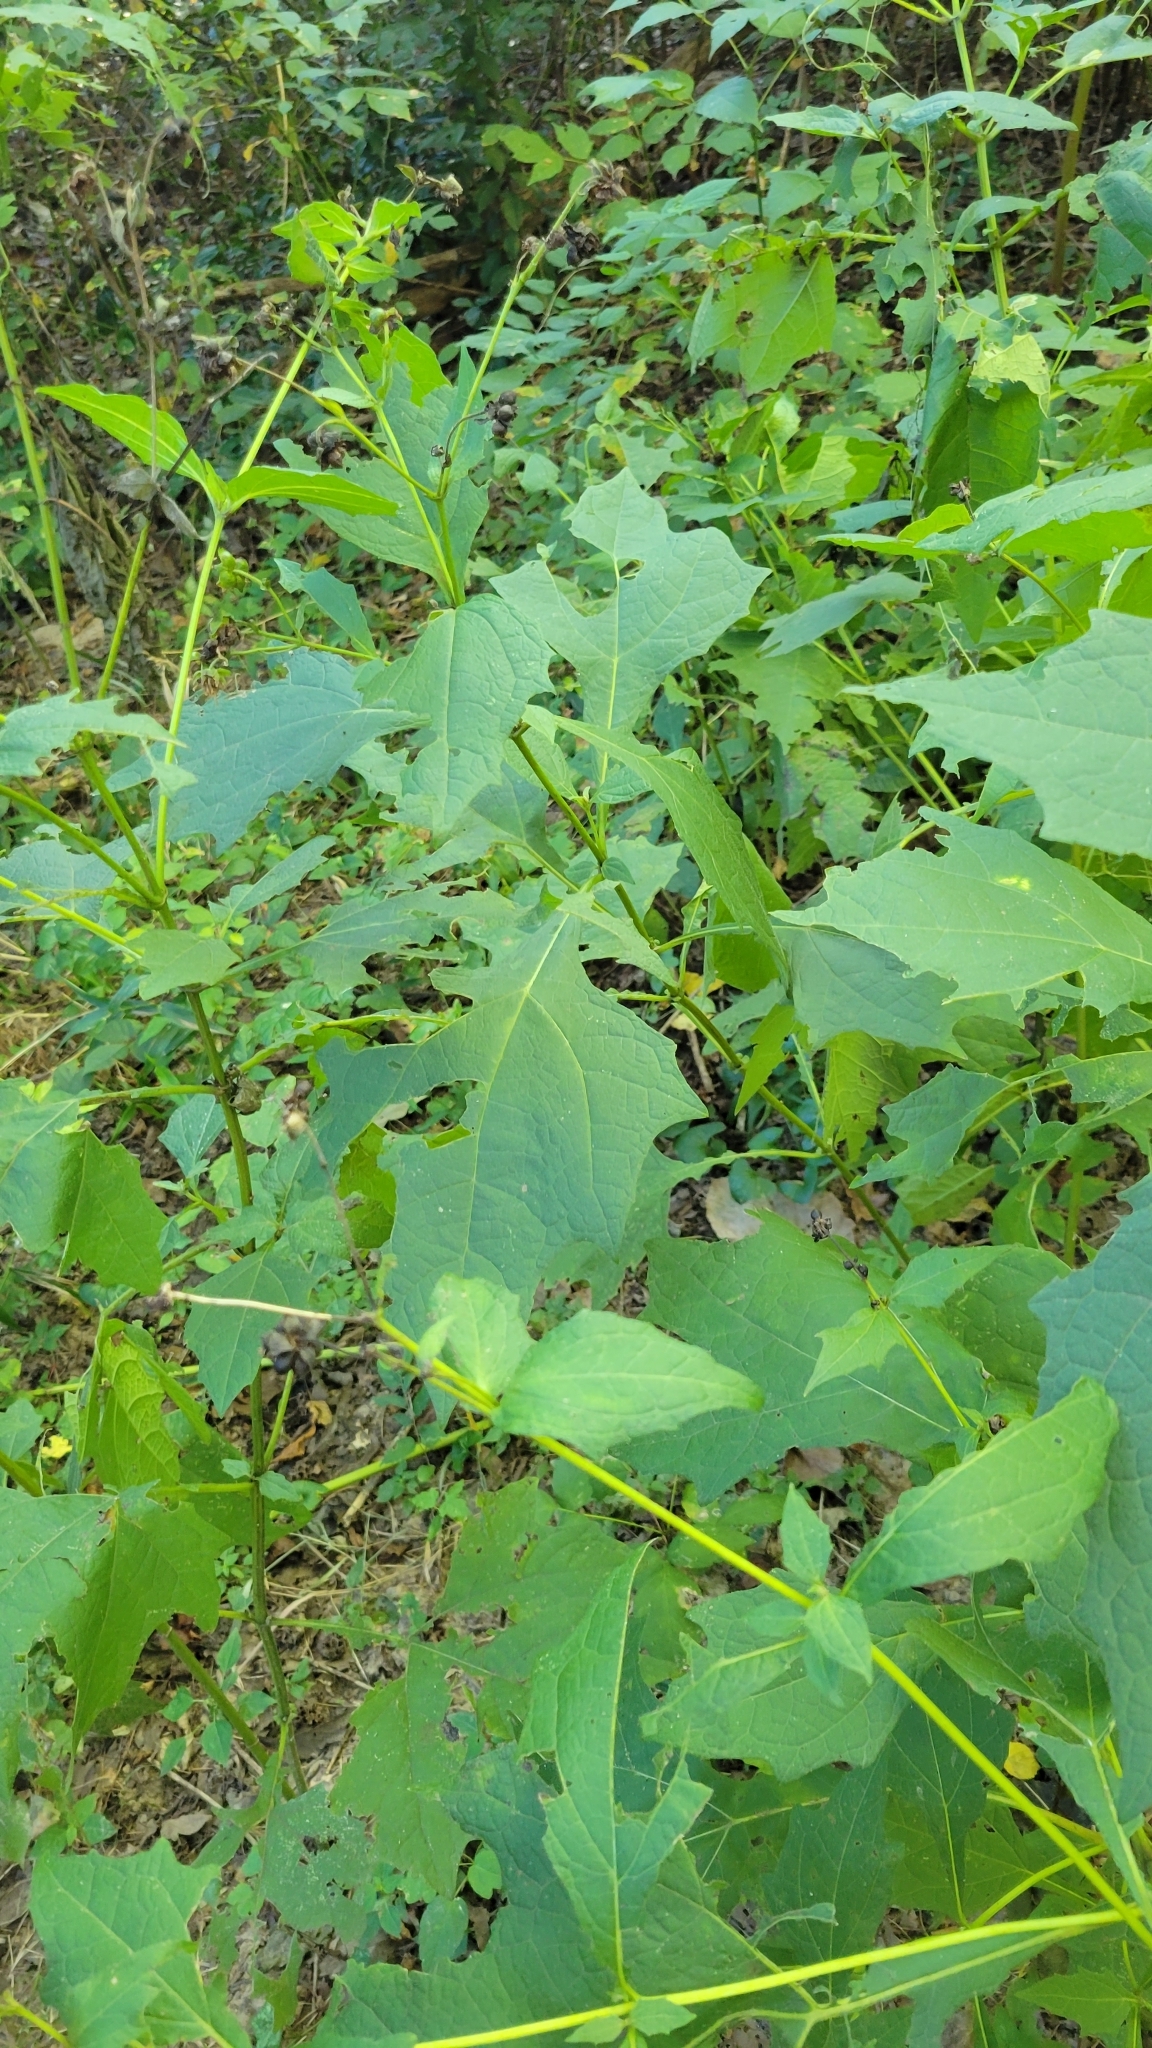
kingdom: Plantae
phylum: Tracheophyta
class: Magnoliopsida
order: Asterales
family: Asteraceae
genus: Smallanthus
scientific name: Smallanthus uvedalia
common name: Bear's-foot
